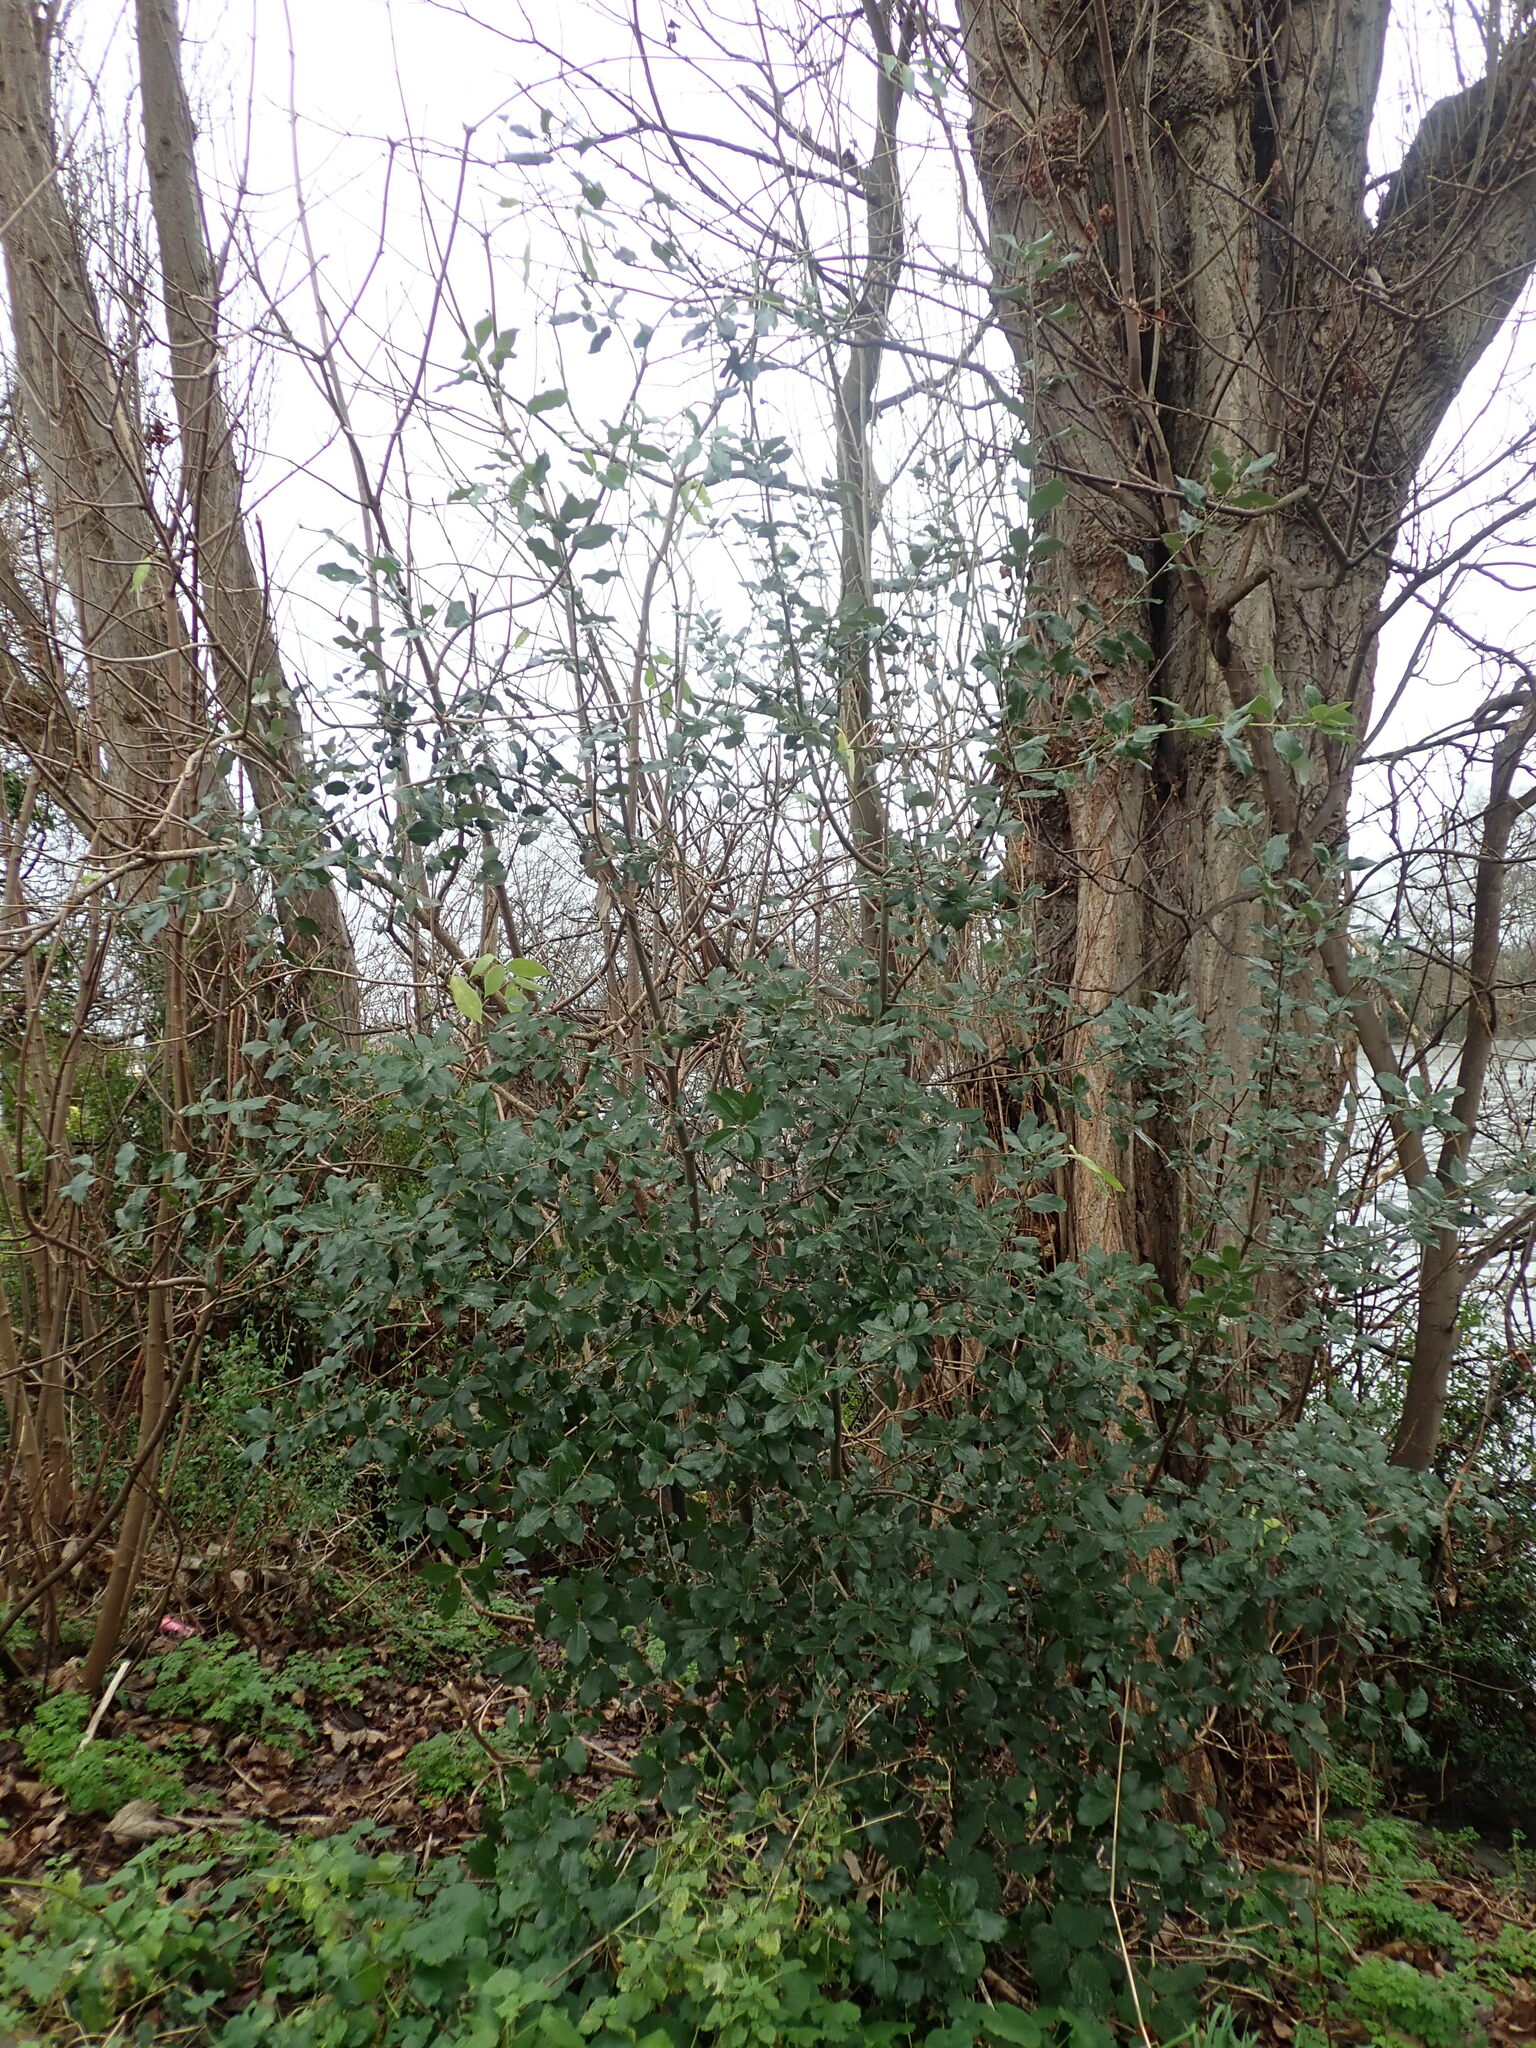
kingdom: Plantae
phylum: Tracheophyta
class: Magnoliopsida
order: Fagales
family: Fagaceae
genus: Quercus
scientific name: Quercus ilex
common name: Evergreen oak
